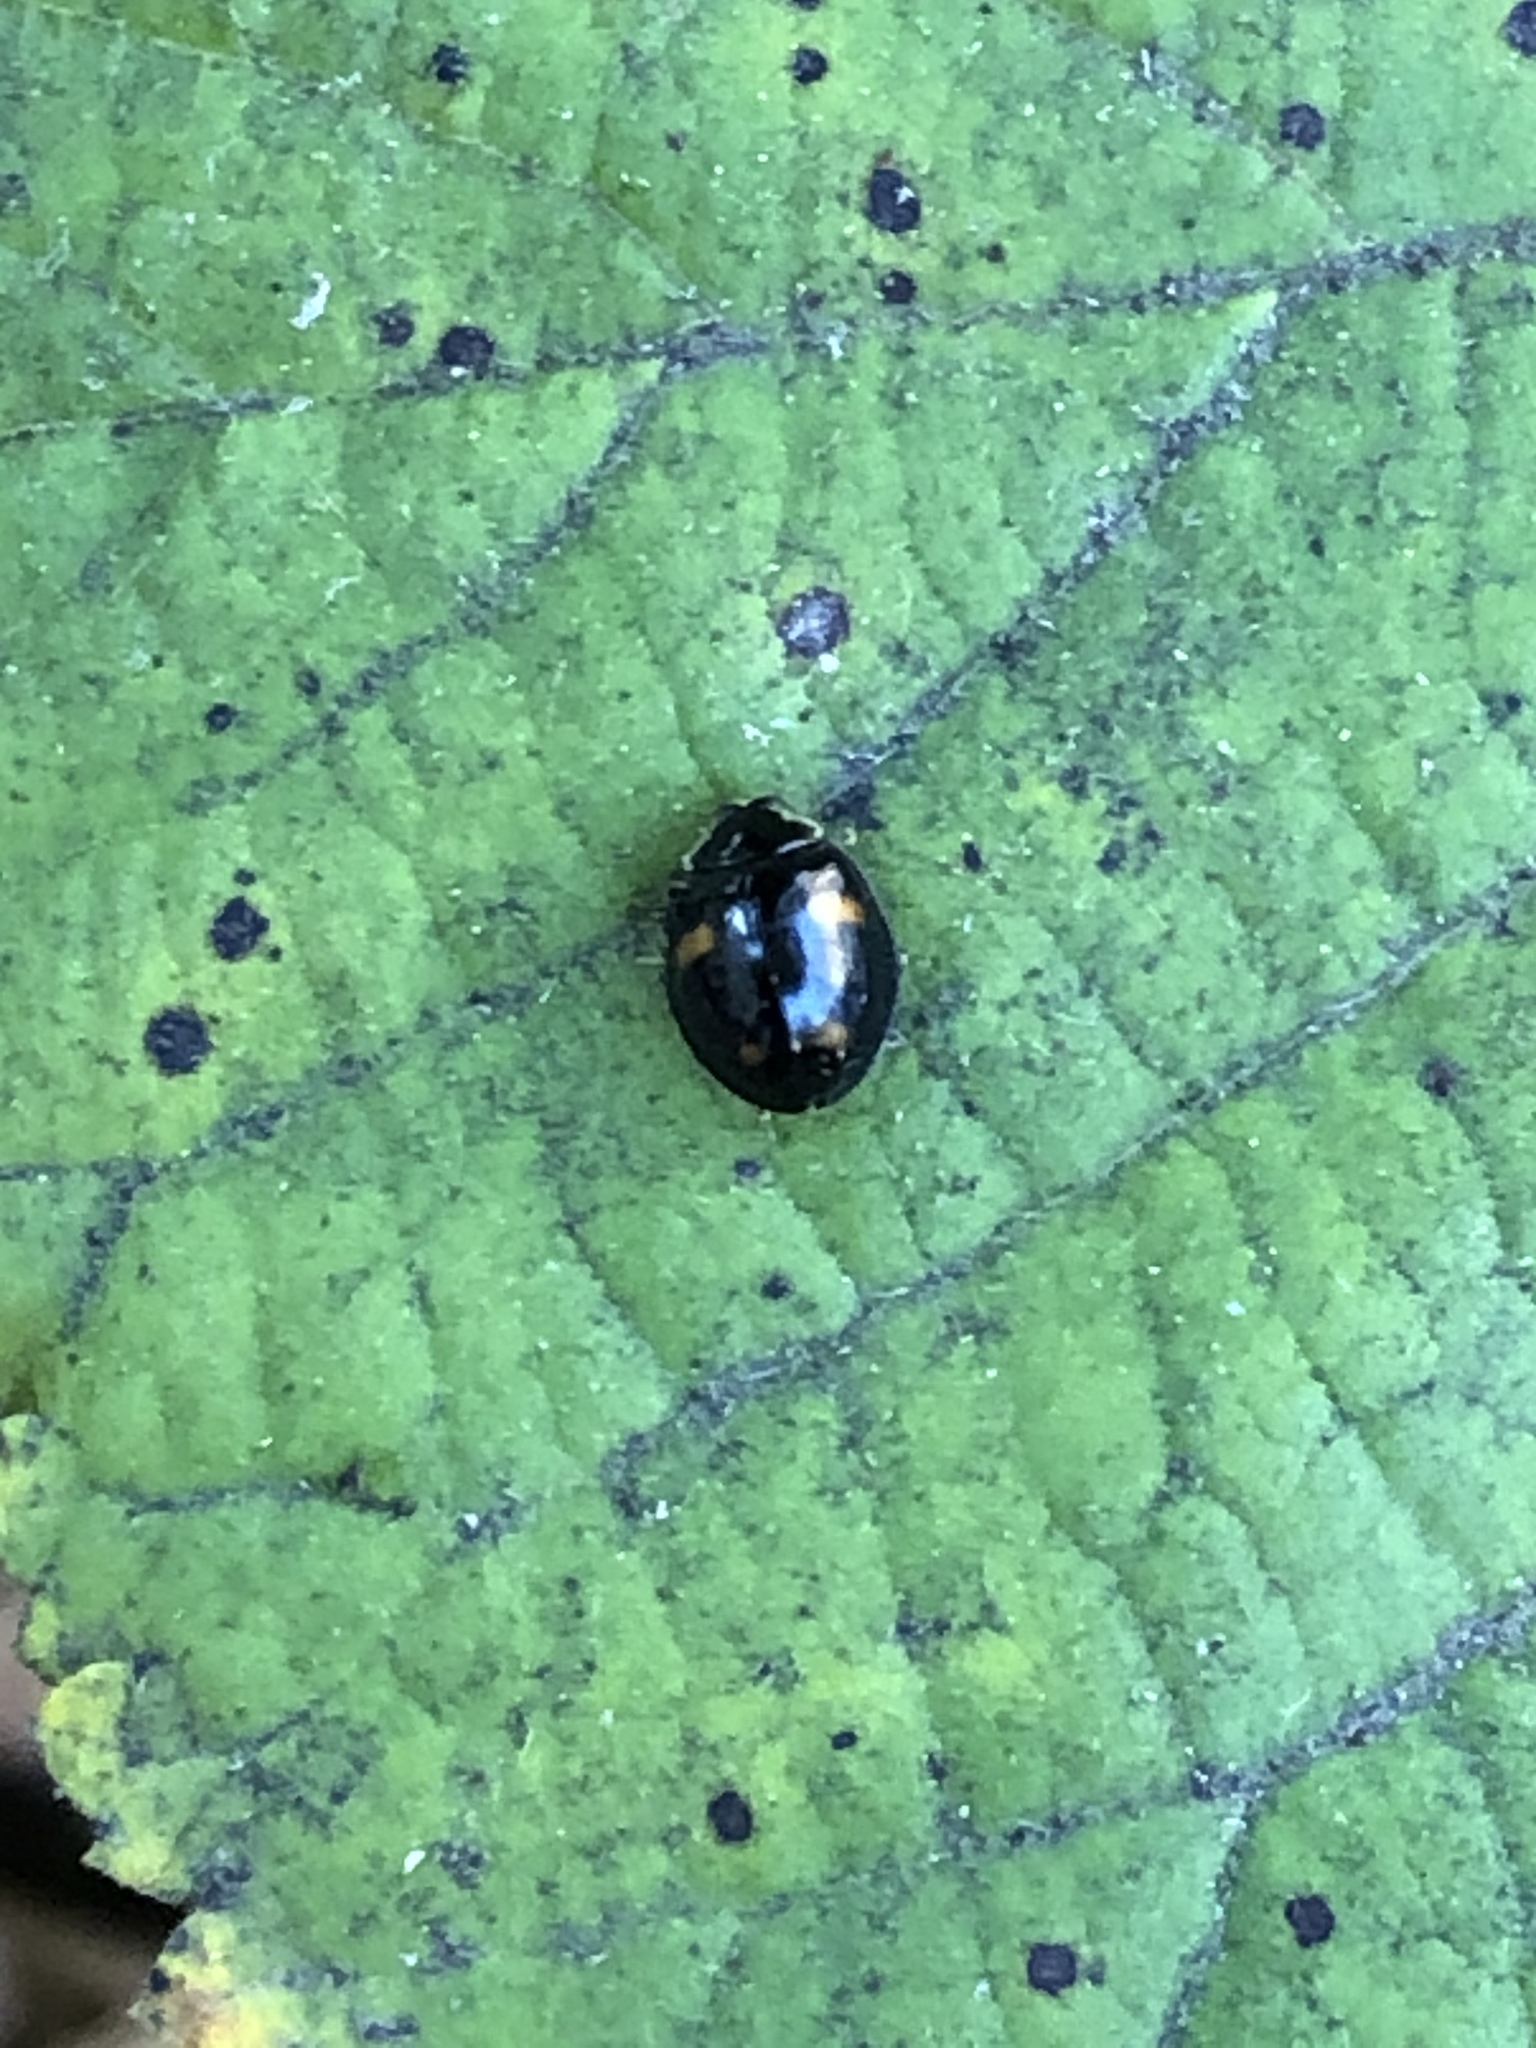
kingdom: Animalia
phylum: Arthropoda
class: Insecta
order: Coleoptera
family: Coccinellidae
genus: Harmonia
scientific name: Harmonia axyridis
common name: Harlequin ladybird
